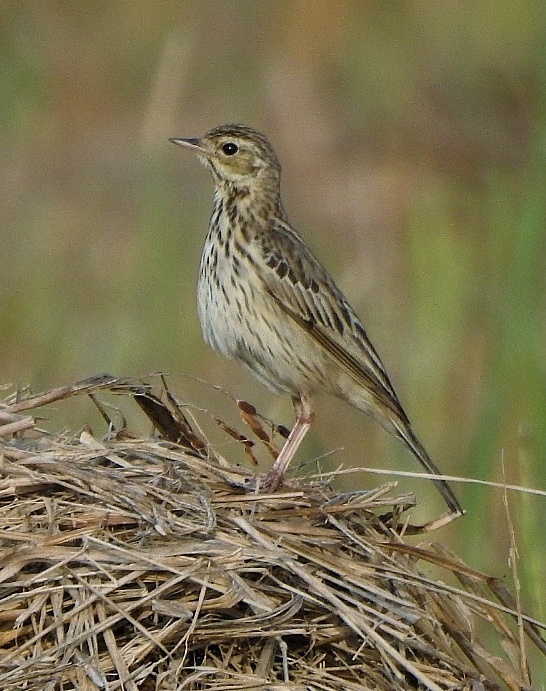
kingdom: Animalia
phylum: Chordata
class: Aves
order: Passeriformes
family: Motacillidae
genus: Anthus
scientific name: Anthus trivialis
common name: Tree pipit
